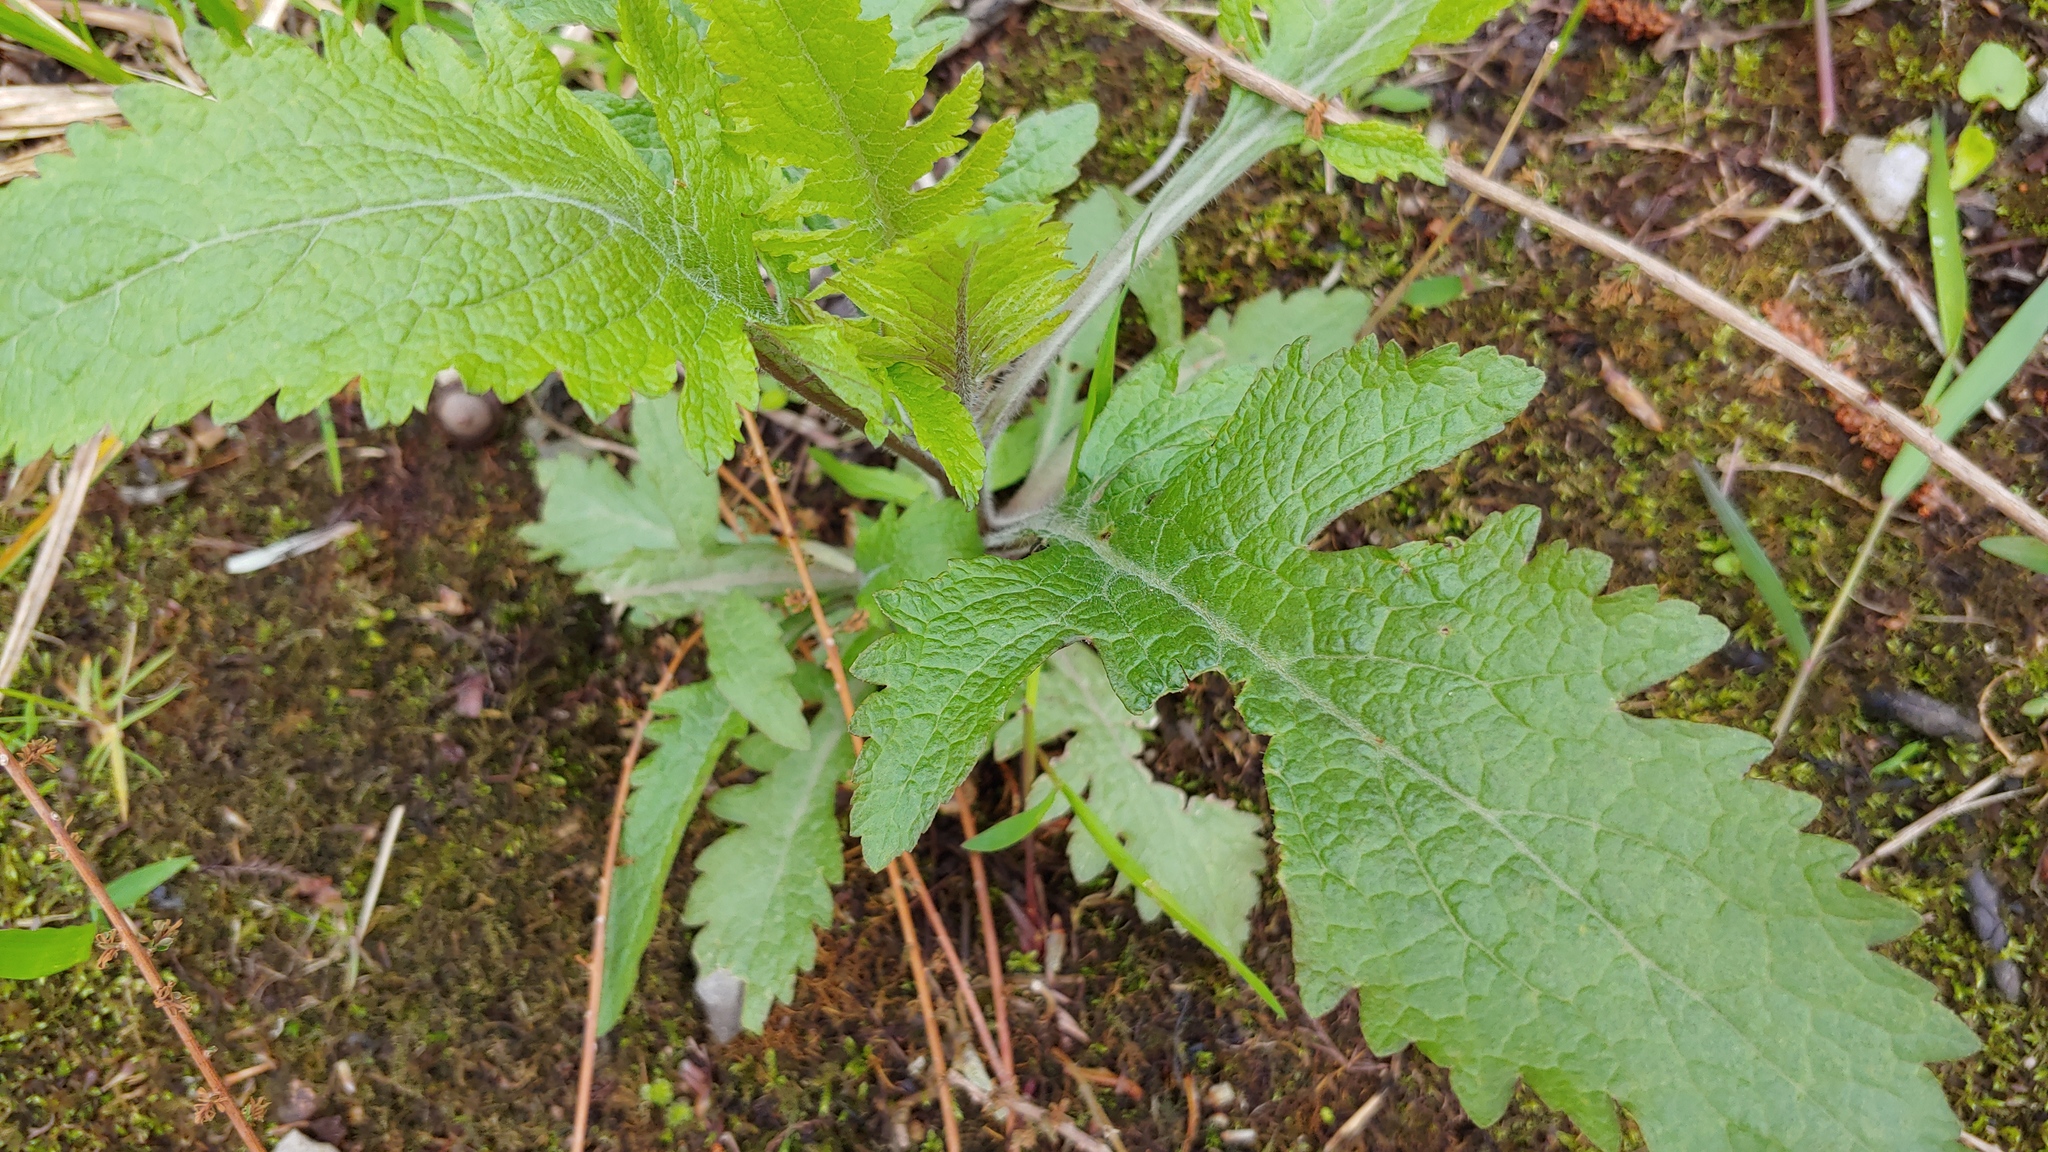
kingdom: Plantae
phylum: Tracheophyta
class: Magnoliopsida
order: Lamiales
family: Orobanchaceae
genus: Dasistoma
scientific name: Dasistoma macrophyllum
